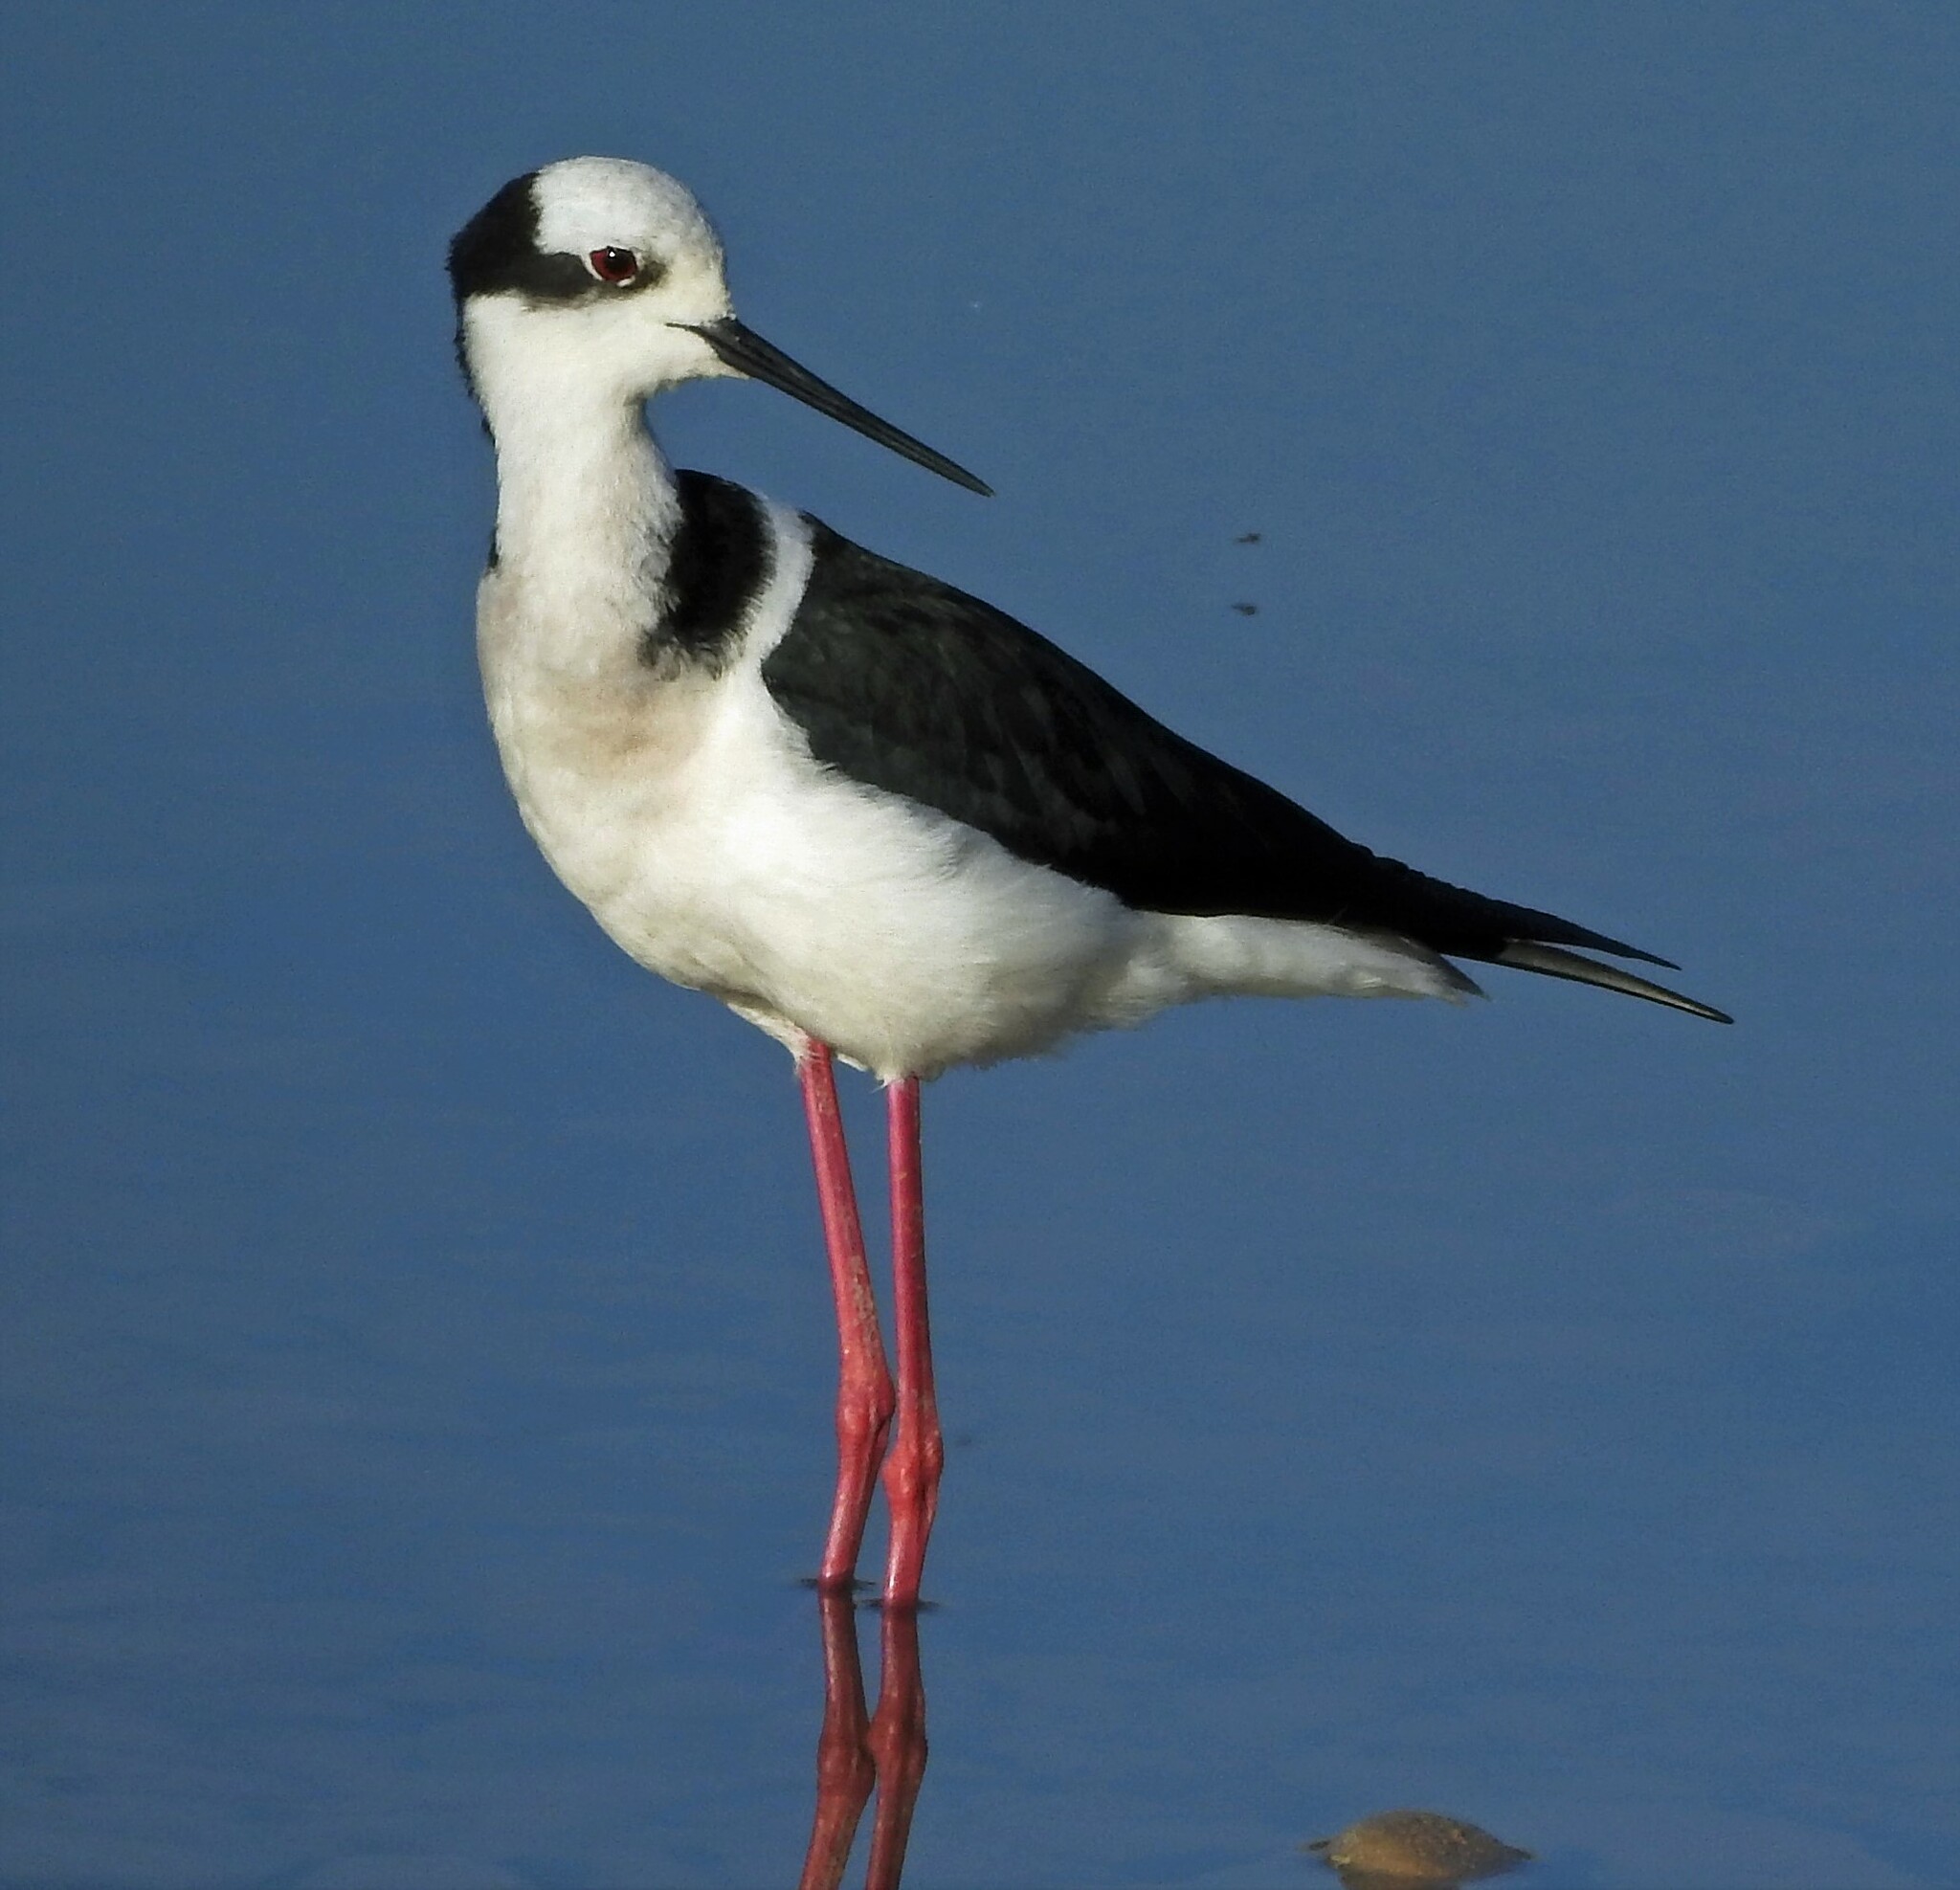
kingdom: Animalia
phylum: Chordata
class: Aves
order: Charadriiformes
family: Recurvirostridae
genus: Himantopus
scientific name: Himantopus mexicanus
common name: Black-necked stilt
